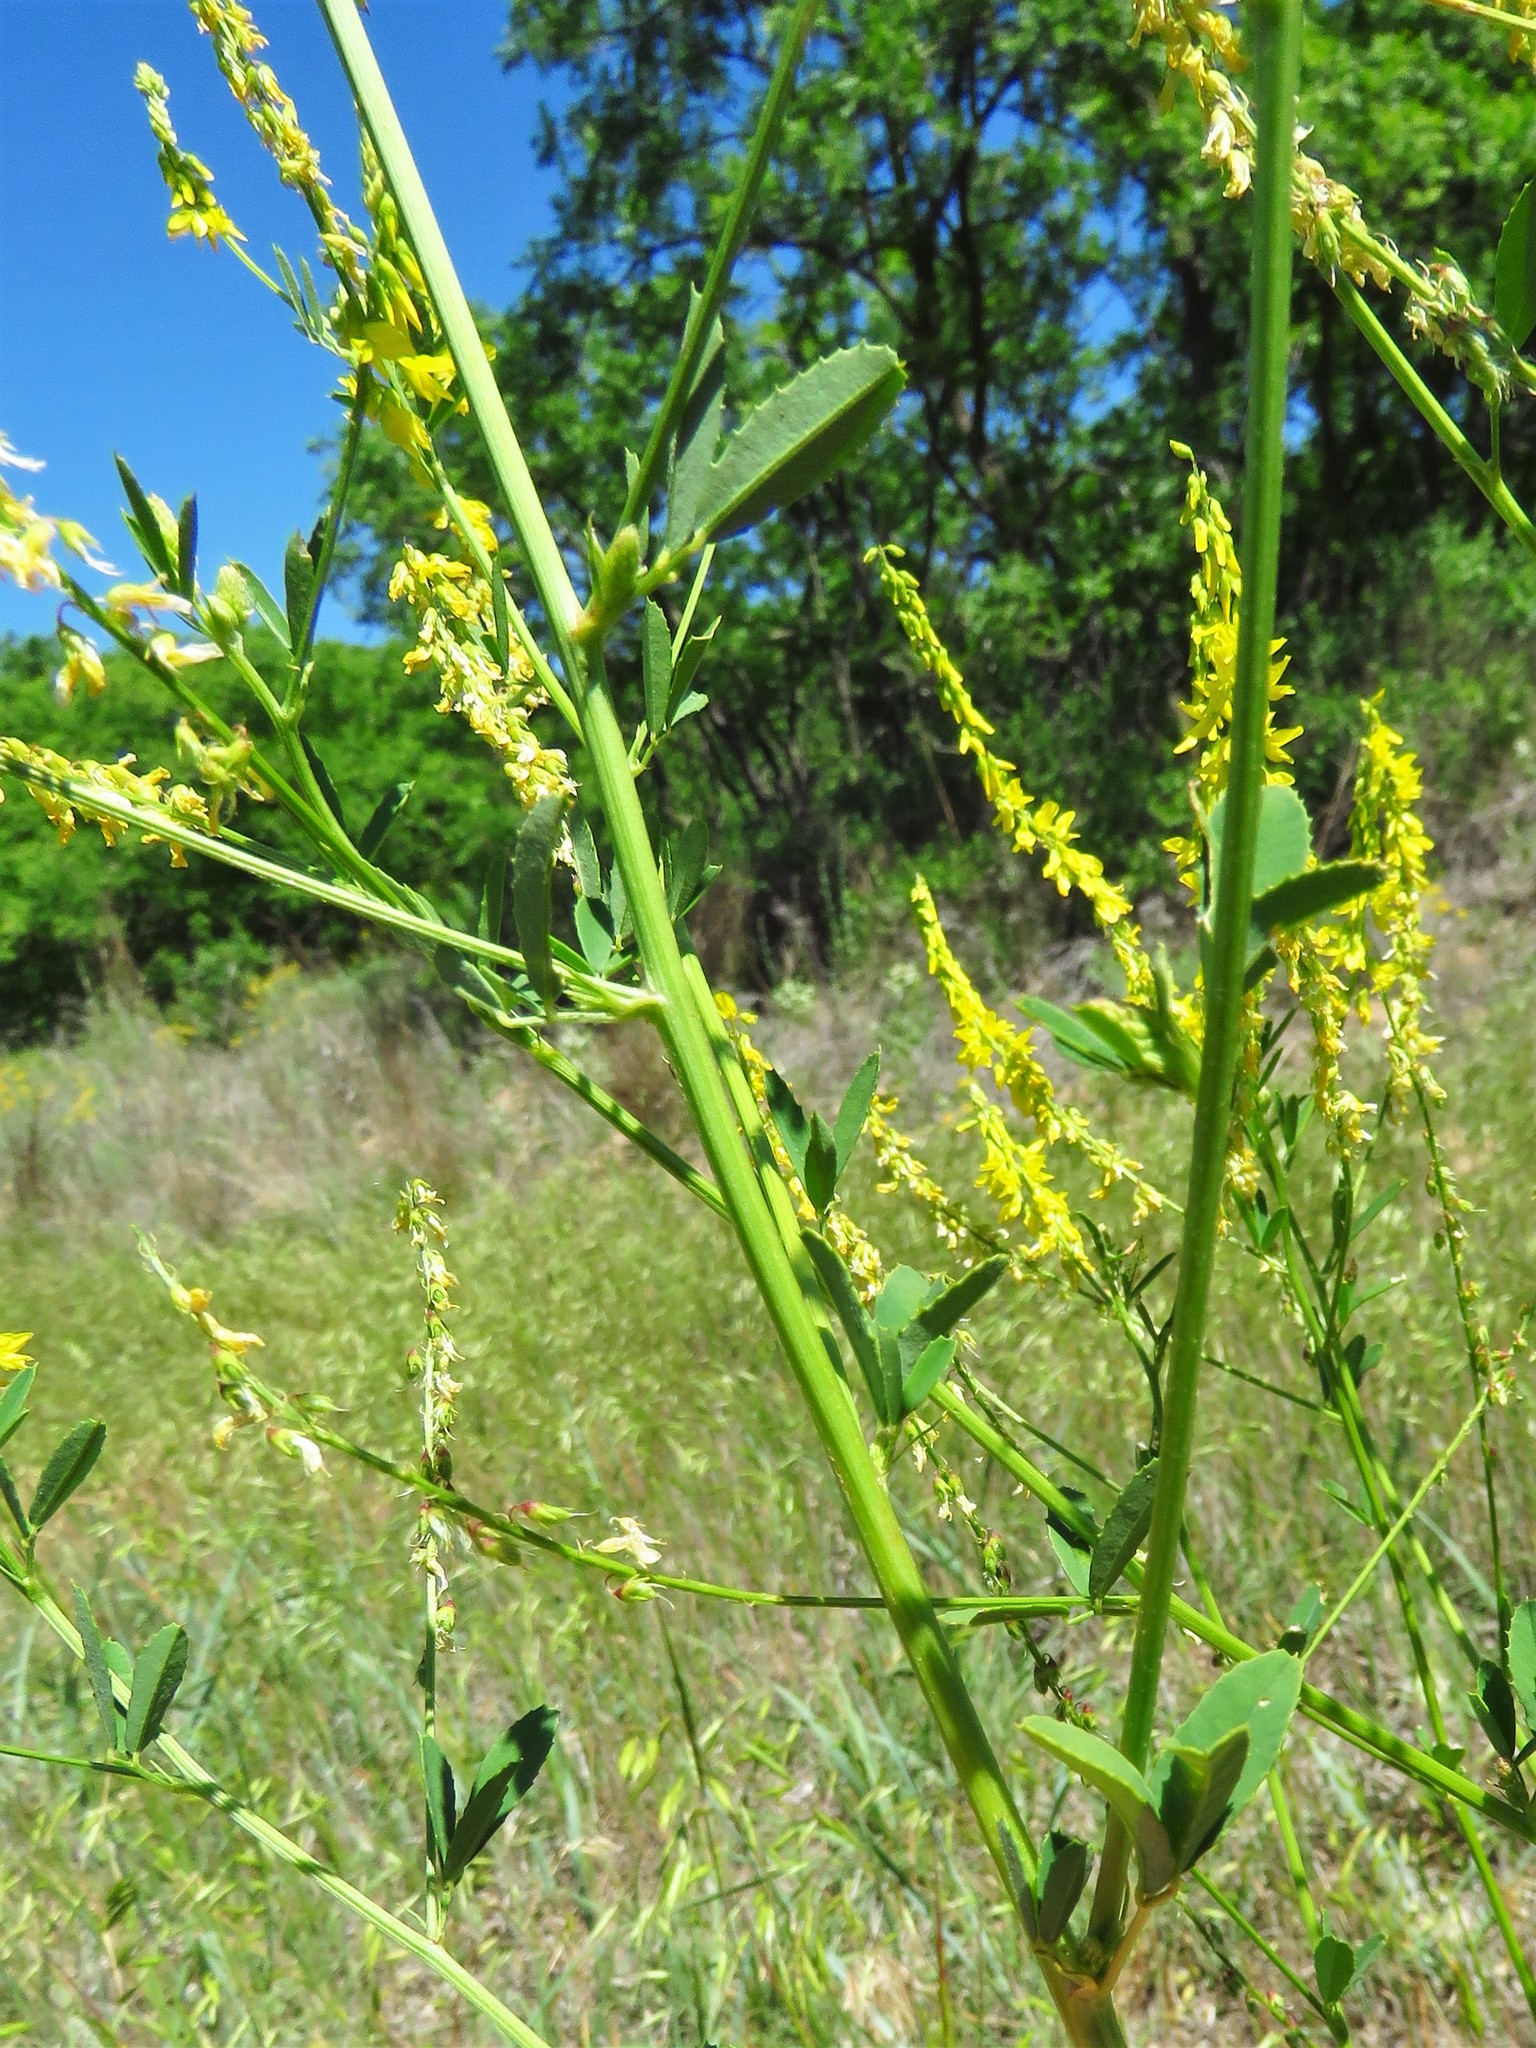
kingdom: Plantae
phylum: Tracheophyta
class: Magnoliopsida
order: Fabales
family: Fabaceae
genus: Melilotus
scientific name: Melilotus officinalis
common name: Sweetclover
